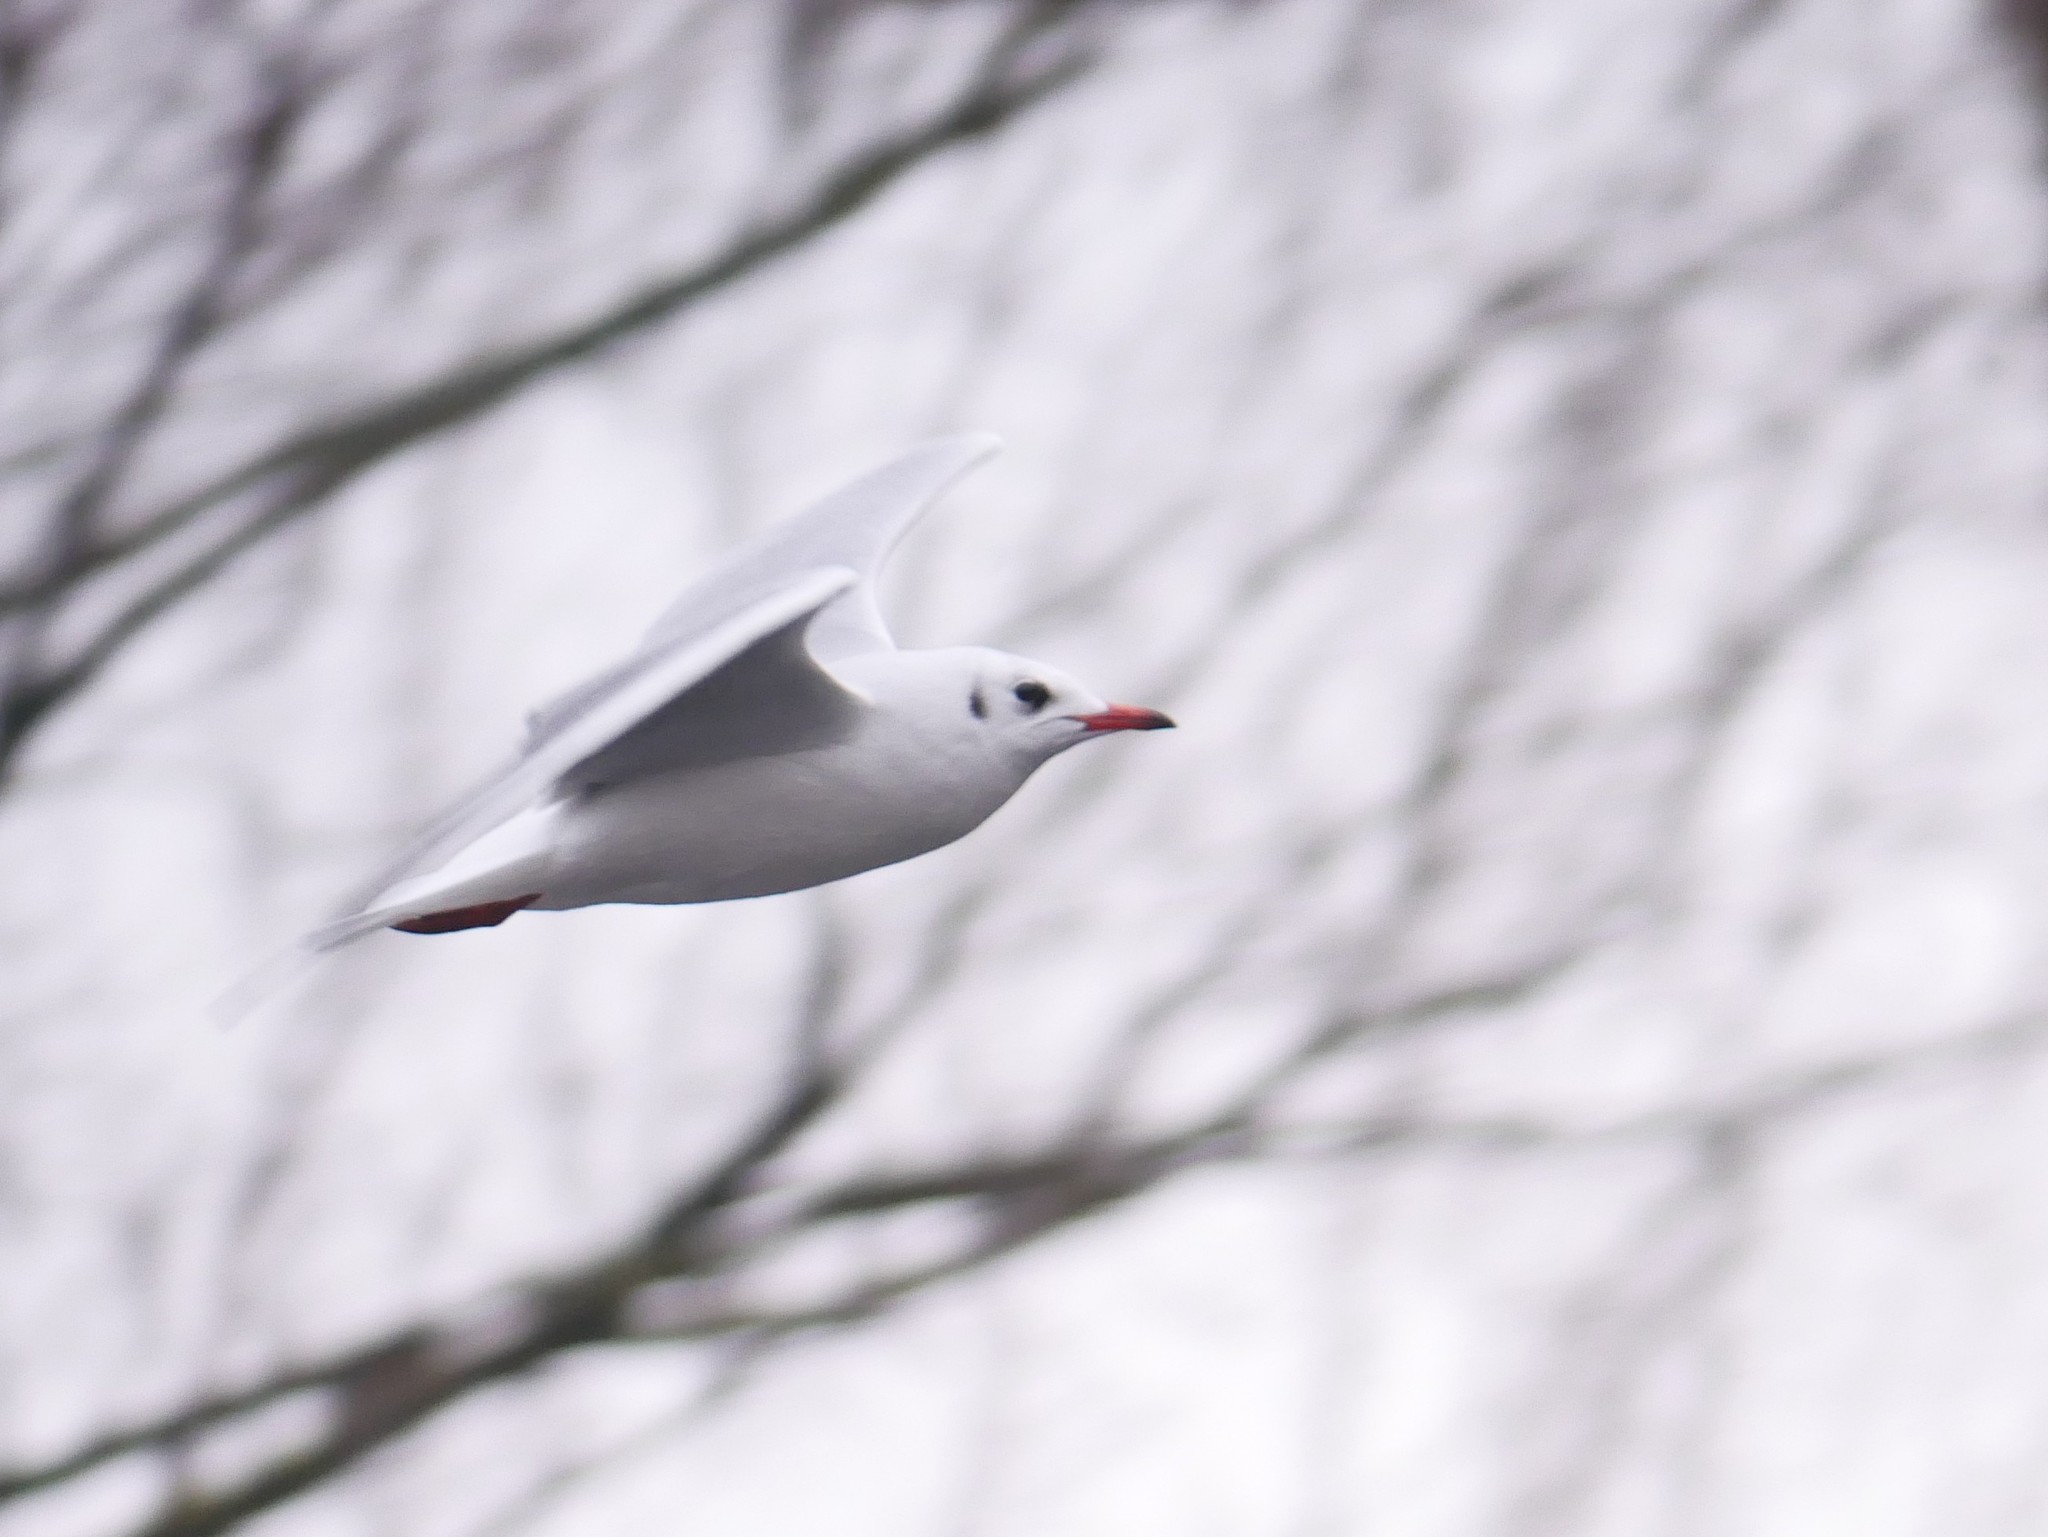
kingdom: Animalia
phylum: Chordata
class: Aves
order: Charadriiformes
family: Laridae
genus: Chroicocephalus
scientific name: Chroicocephalus ridibundus
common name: Black-headed gull
